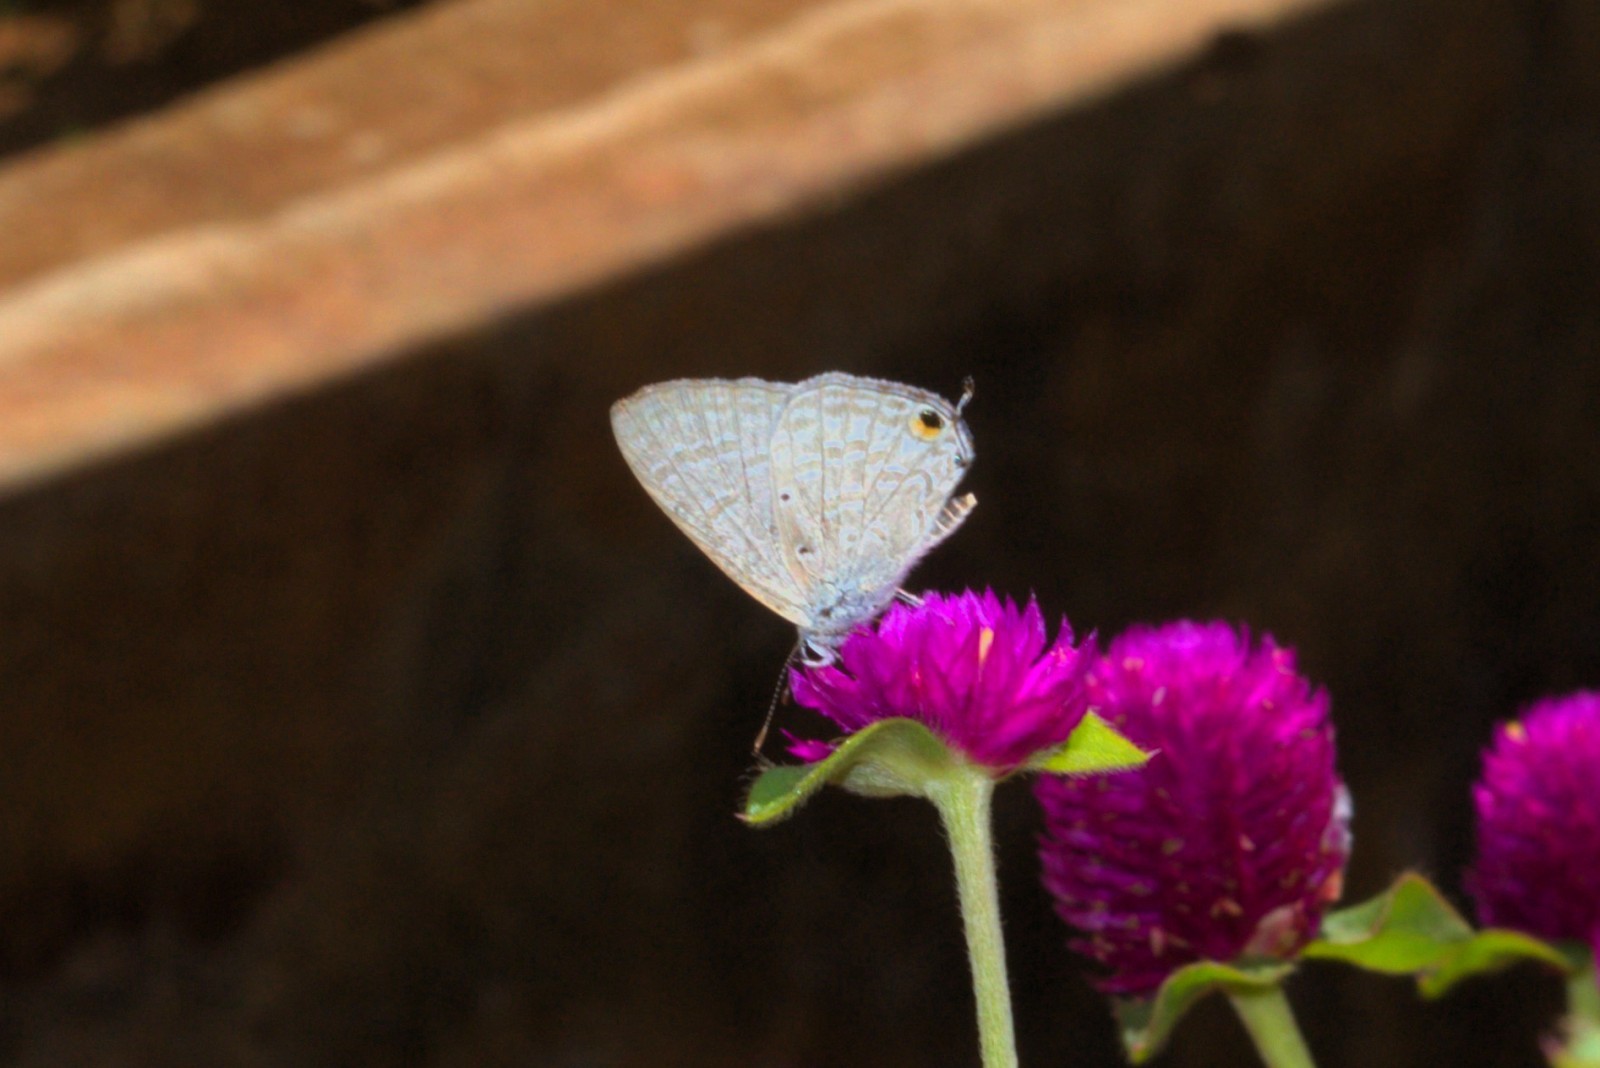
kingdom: Animalia
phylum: Arthropoda
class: Insecta
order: Lepidoptera
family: Lycaenidae
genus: Catochrysops
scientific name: Catochrysops strabo
